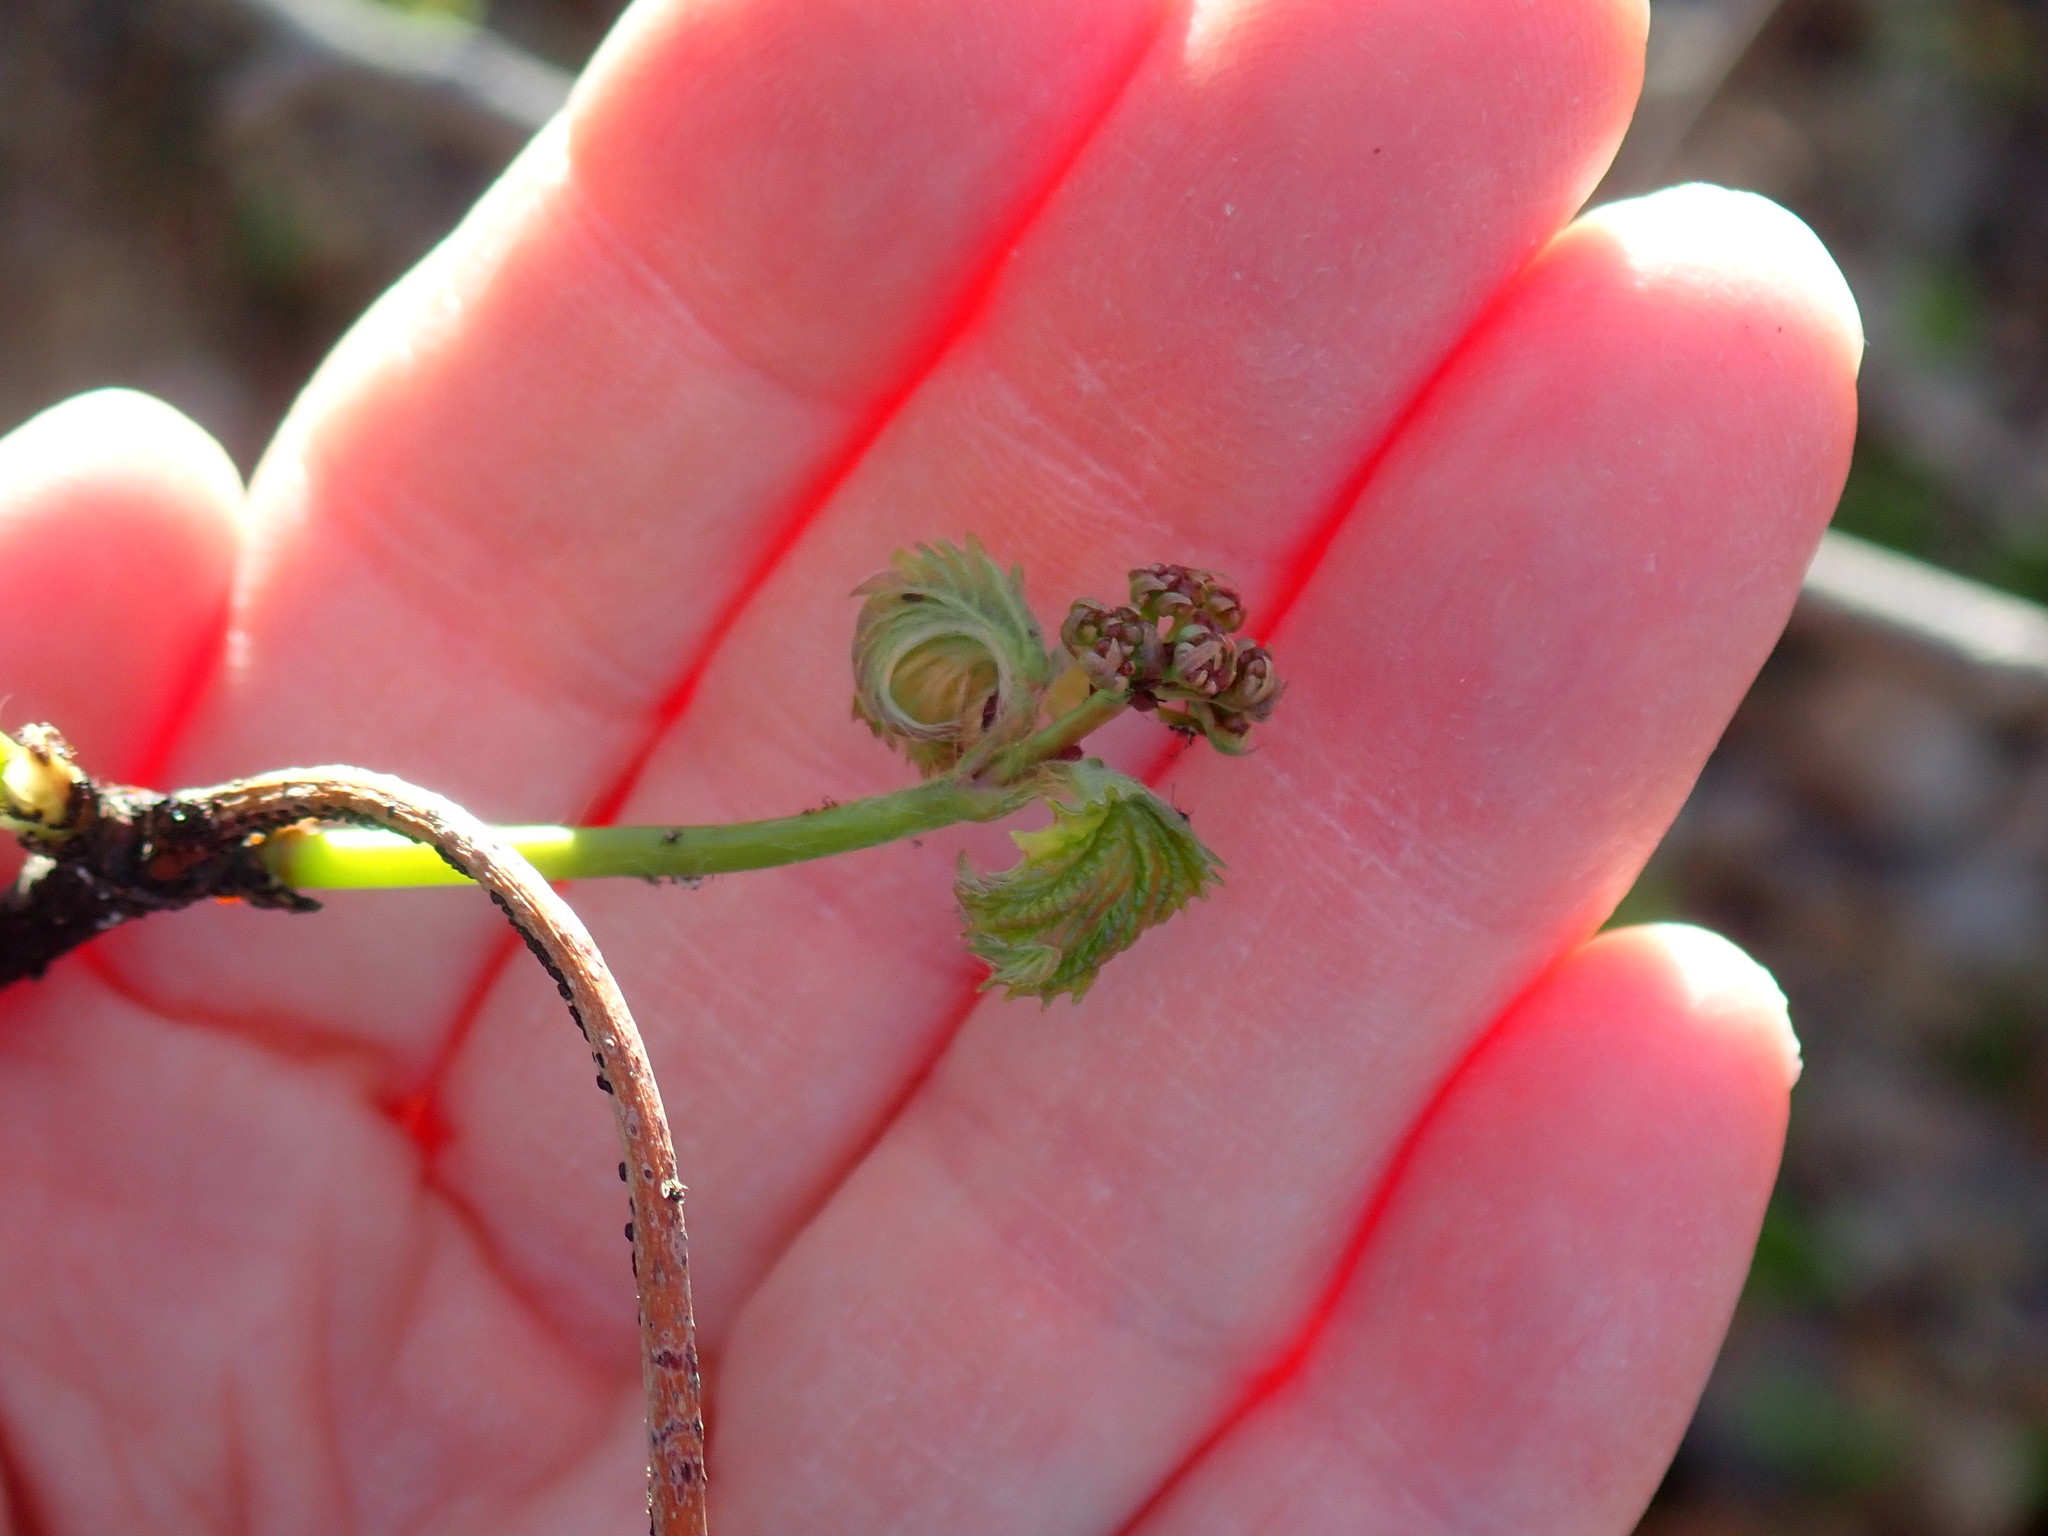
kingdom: Plantae
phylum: Tracheophyta
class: Magnoliopsida
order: Dipsacales
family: Viburnaceae
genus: Viburnum
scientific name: Viburnum acerifolium
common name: Dockmackie
